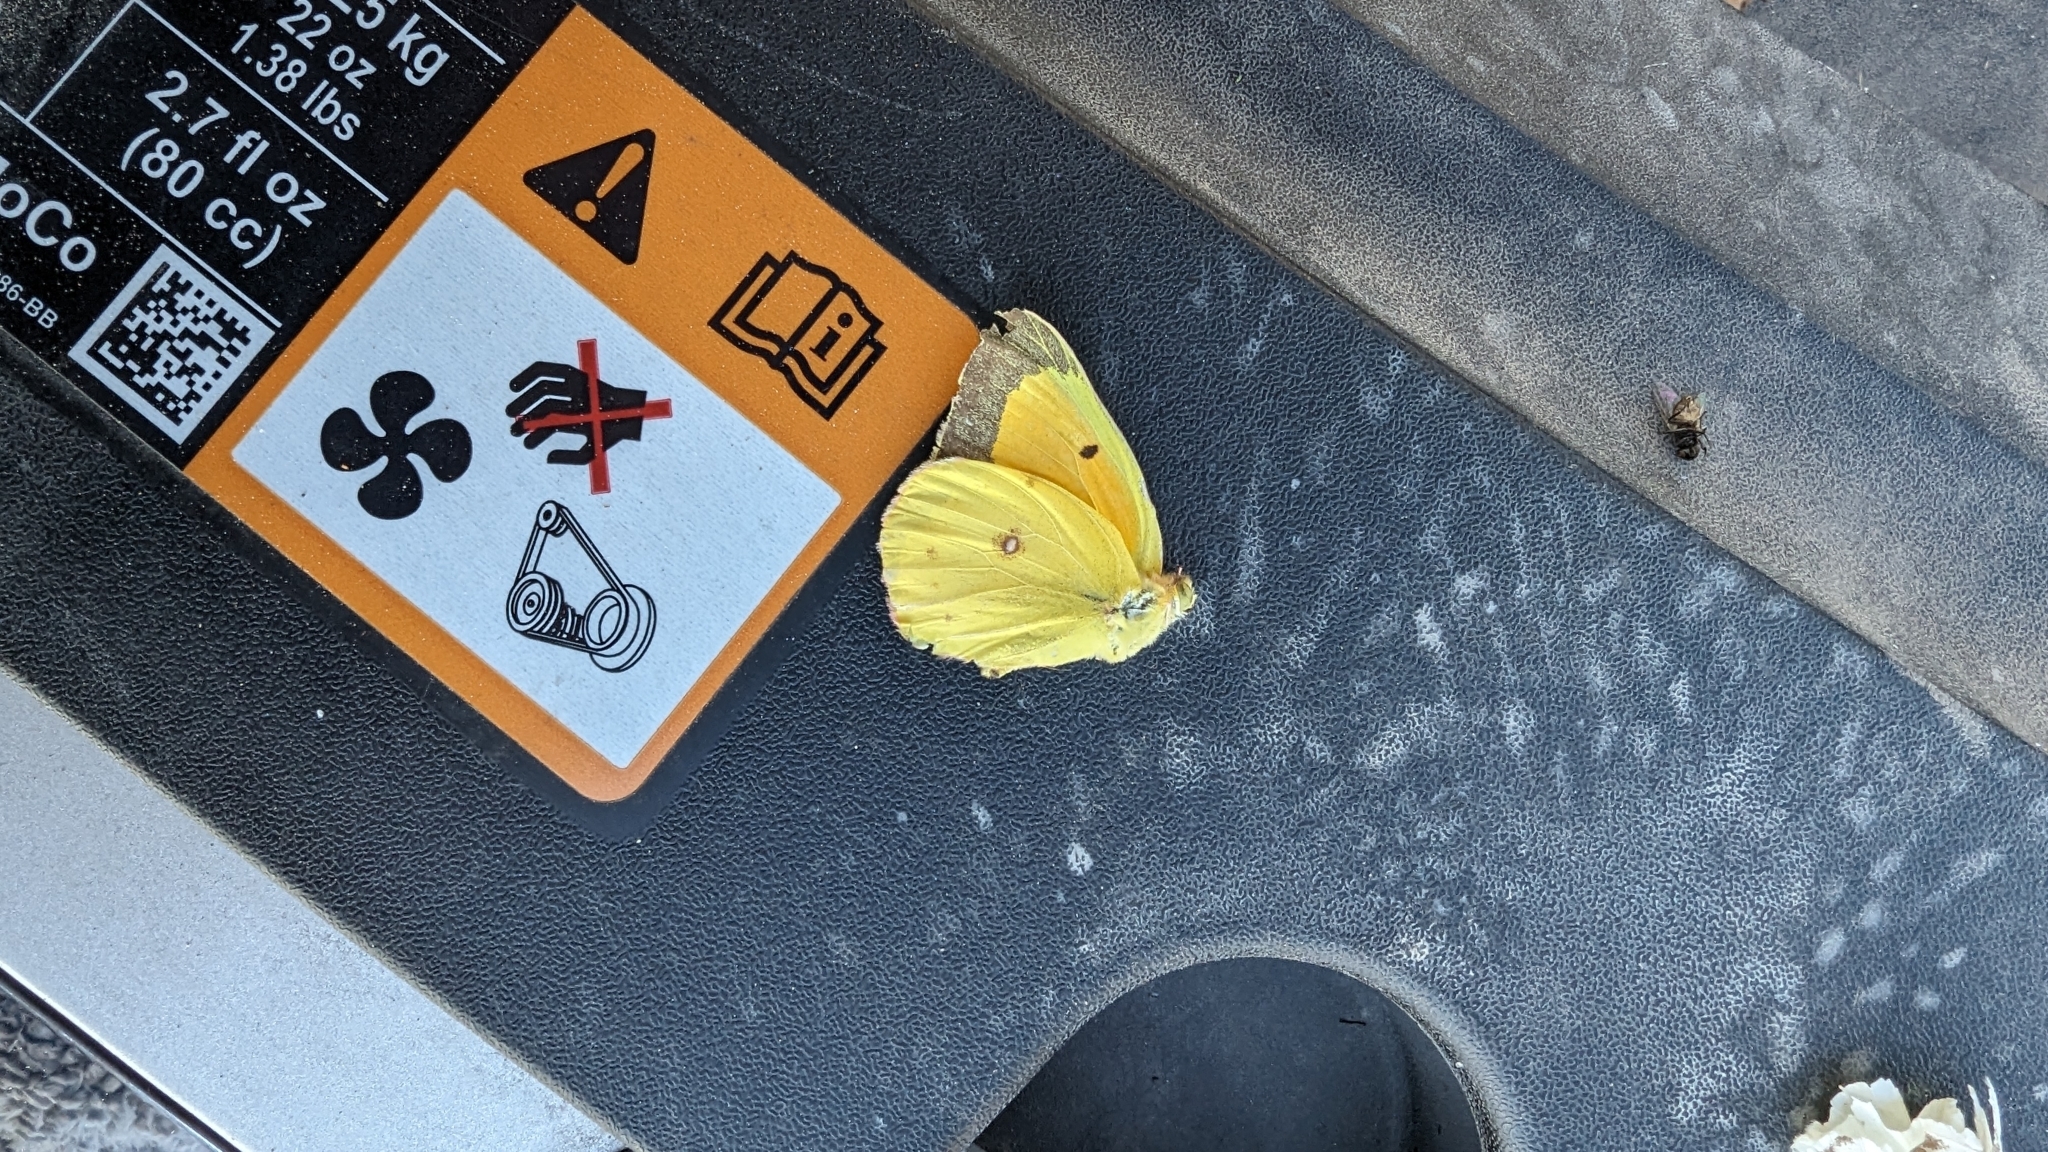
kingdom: Animalia
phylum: Arthropoda
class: Insecta
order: Lepidoptera
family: Pieridae
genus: Colias
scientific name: Colias eurytheme
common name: Alfalfa butterfly
